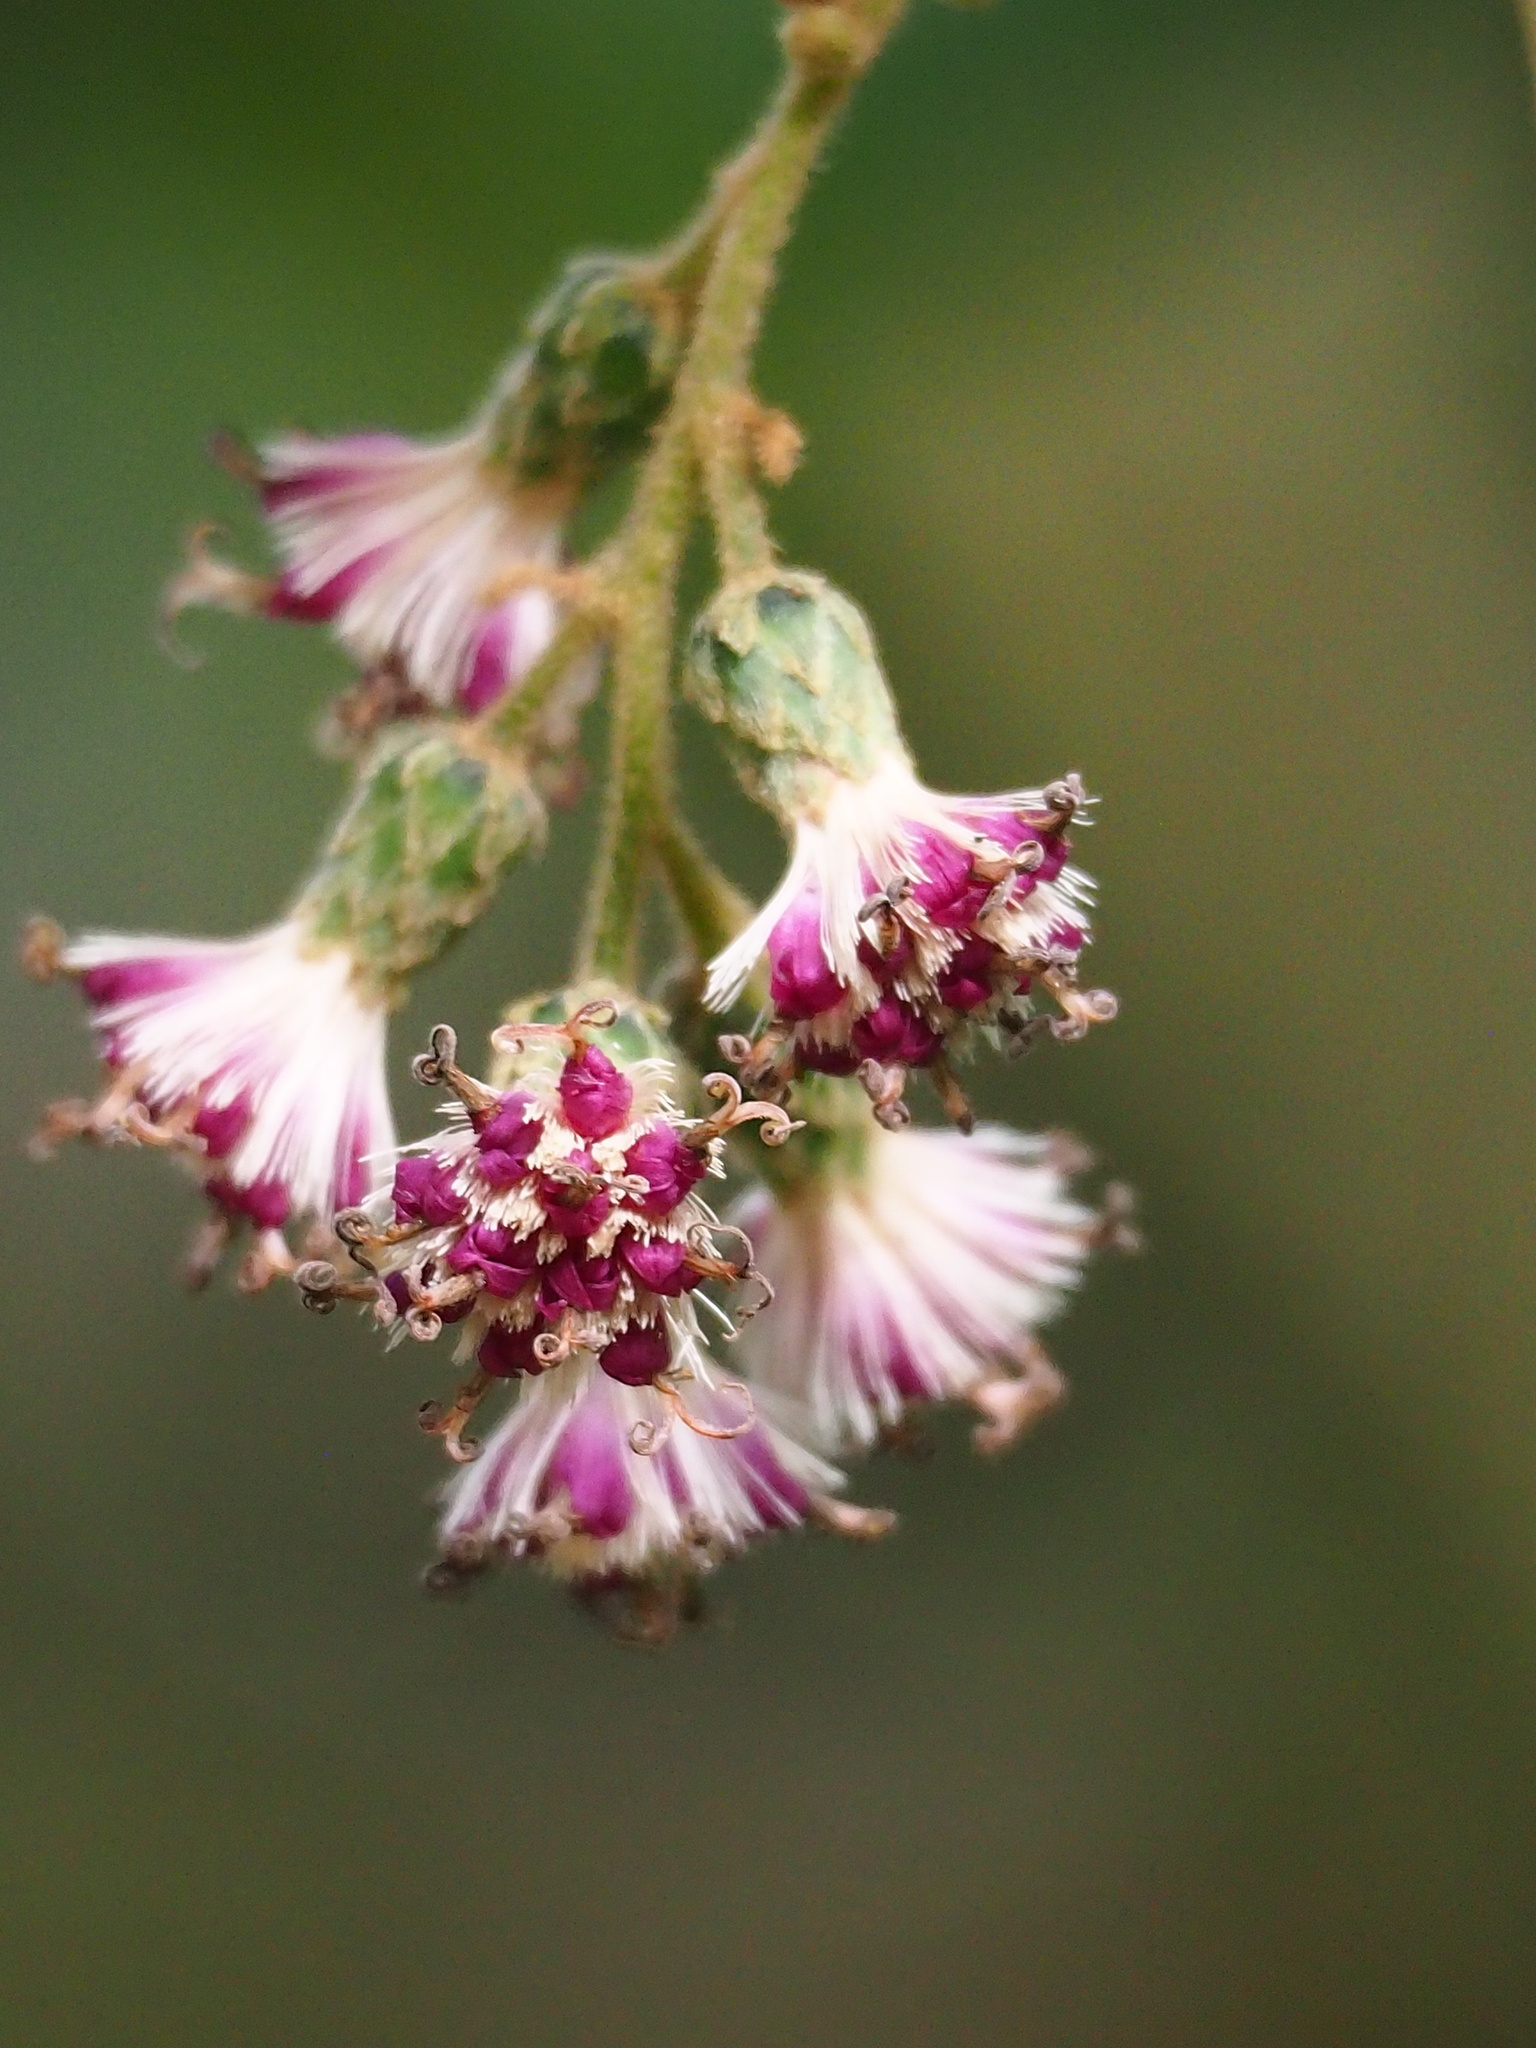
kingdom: Plantae
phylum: Tracheophyta
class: Magnoliopsida
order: Asterales
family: Asteraceae
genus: Decaneuropsis
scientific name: Decaneuropsis gratiosa
